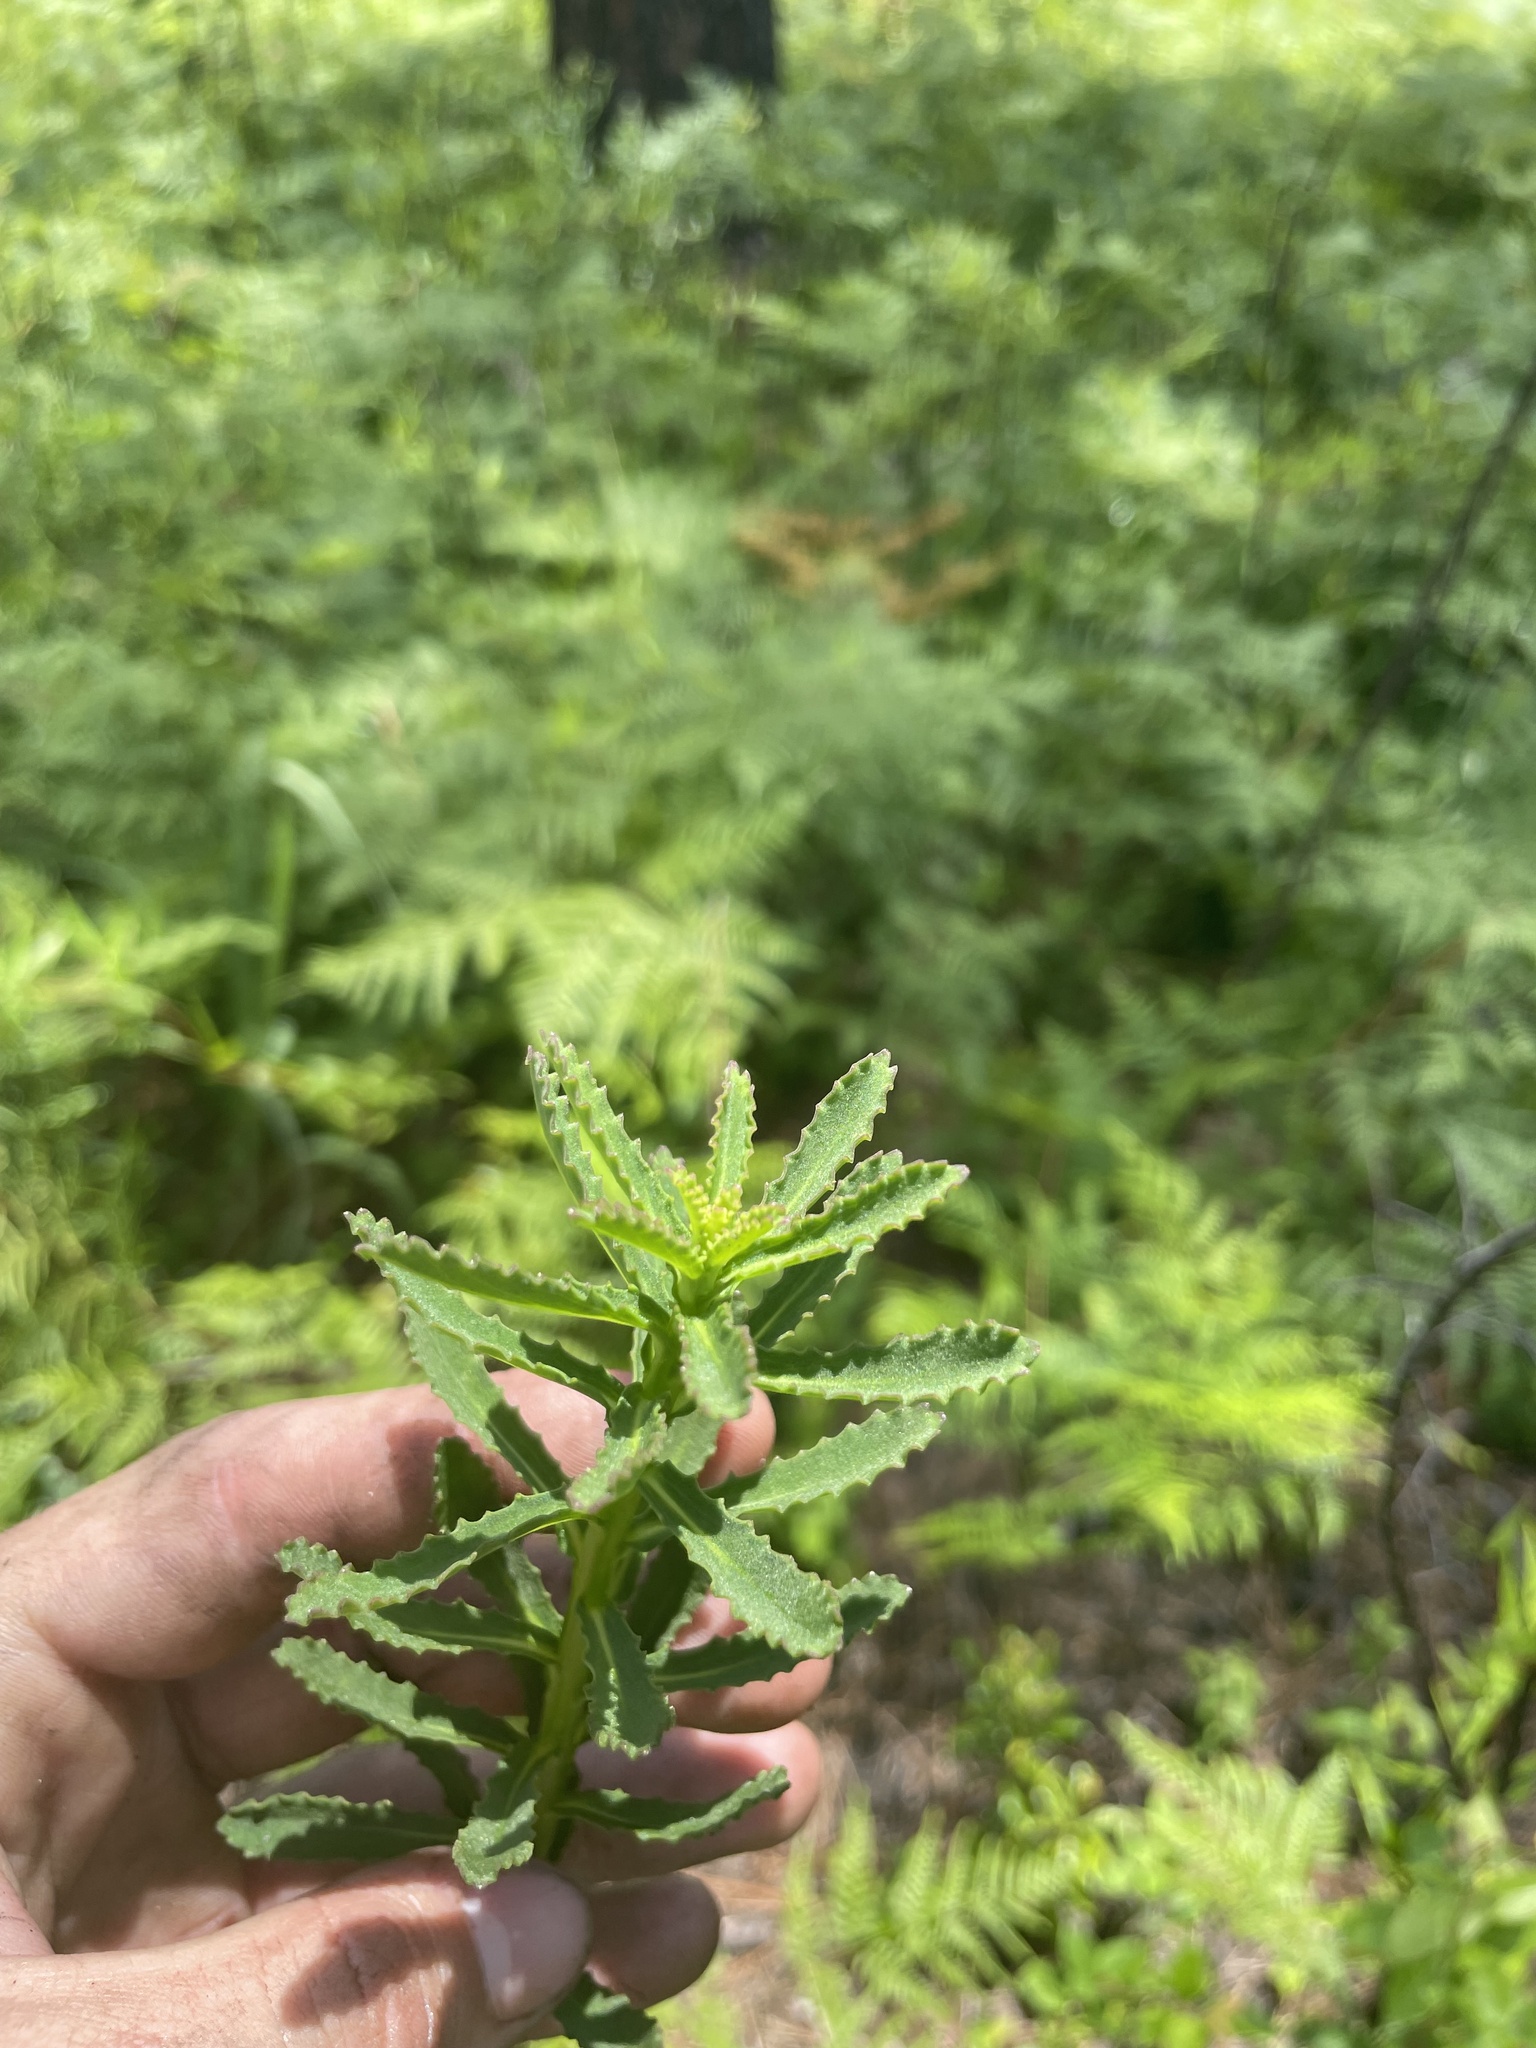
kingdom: Plantae
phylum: Tracheophyta
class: Magnoliopsida
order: Asterales
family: Campanulaceae
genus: Lobelia
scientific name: Lobelia brevifolia
